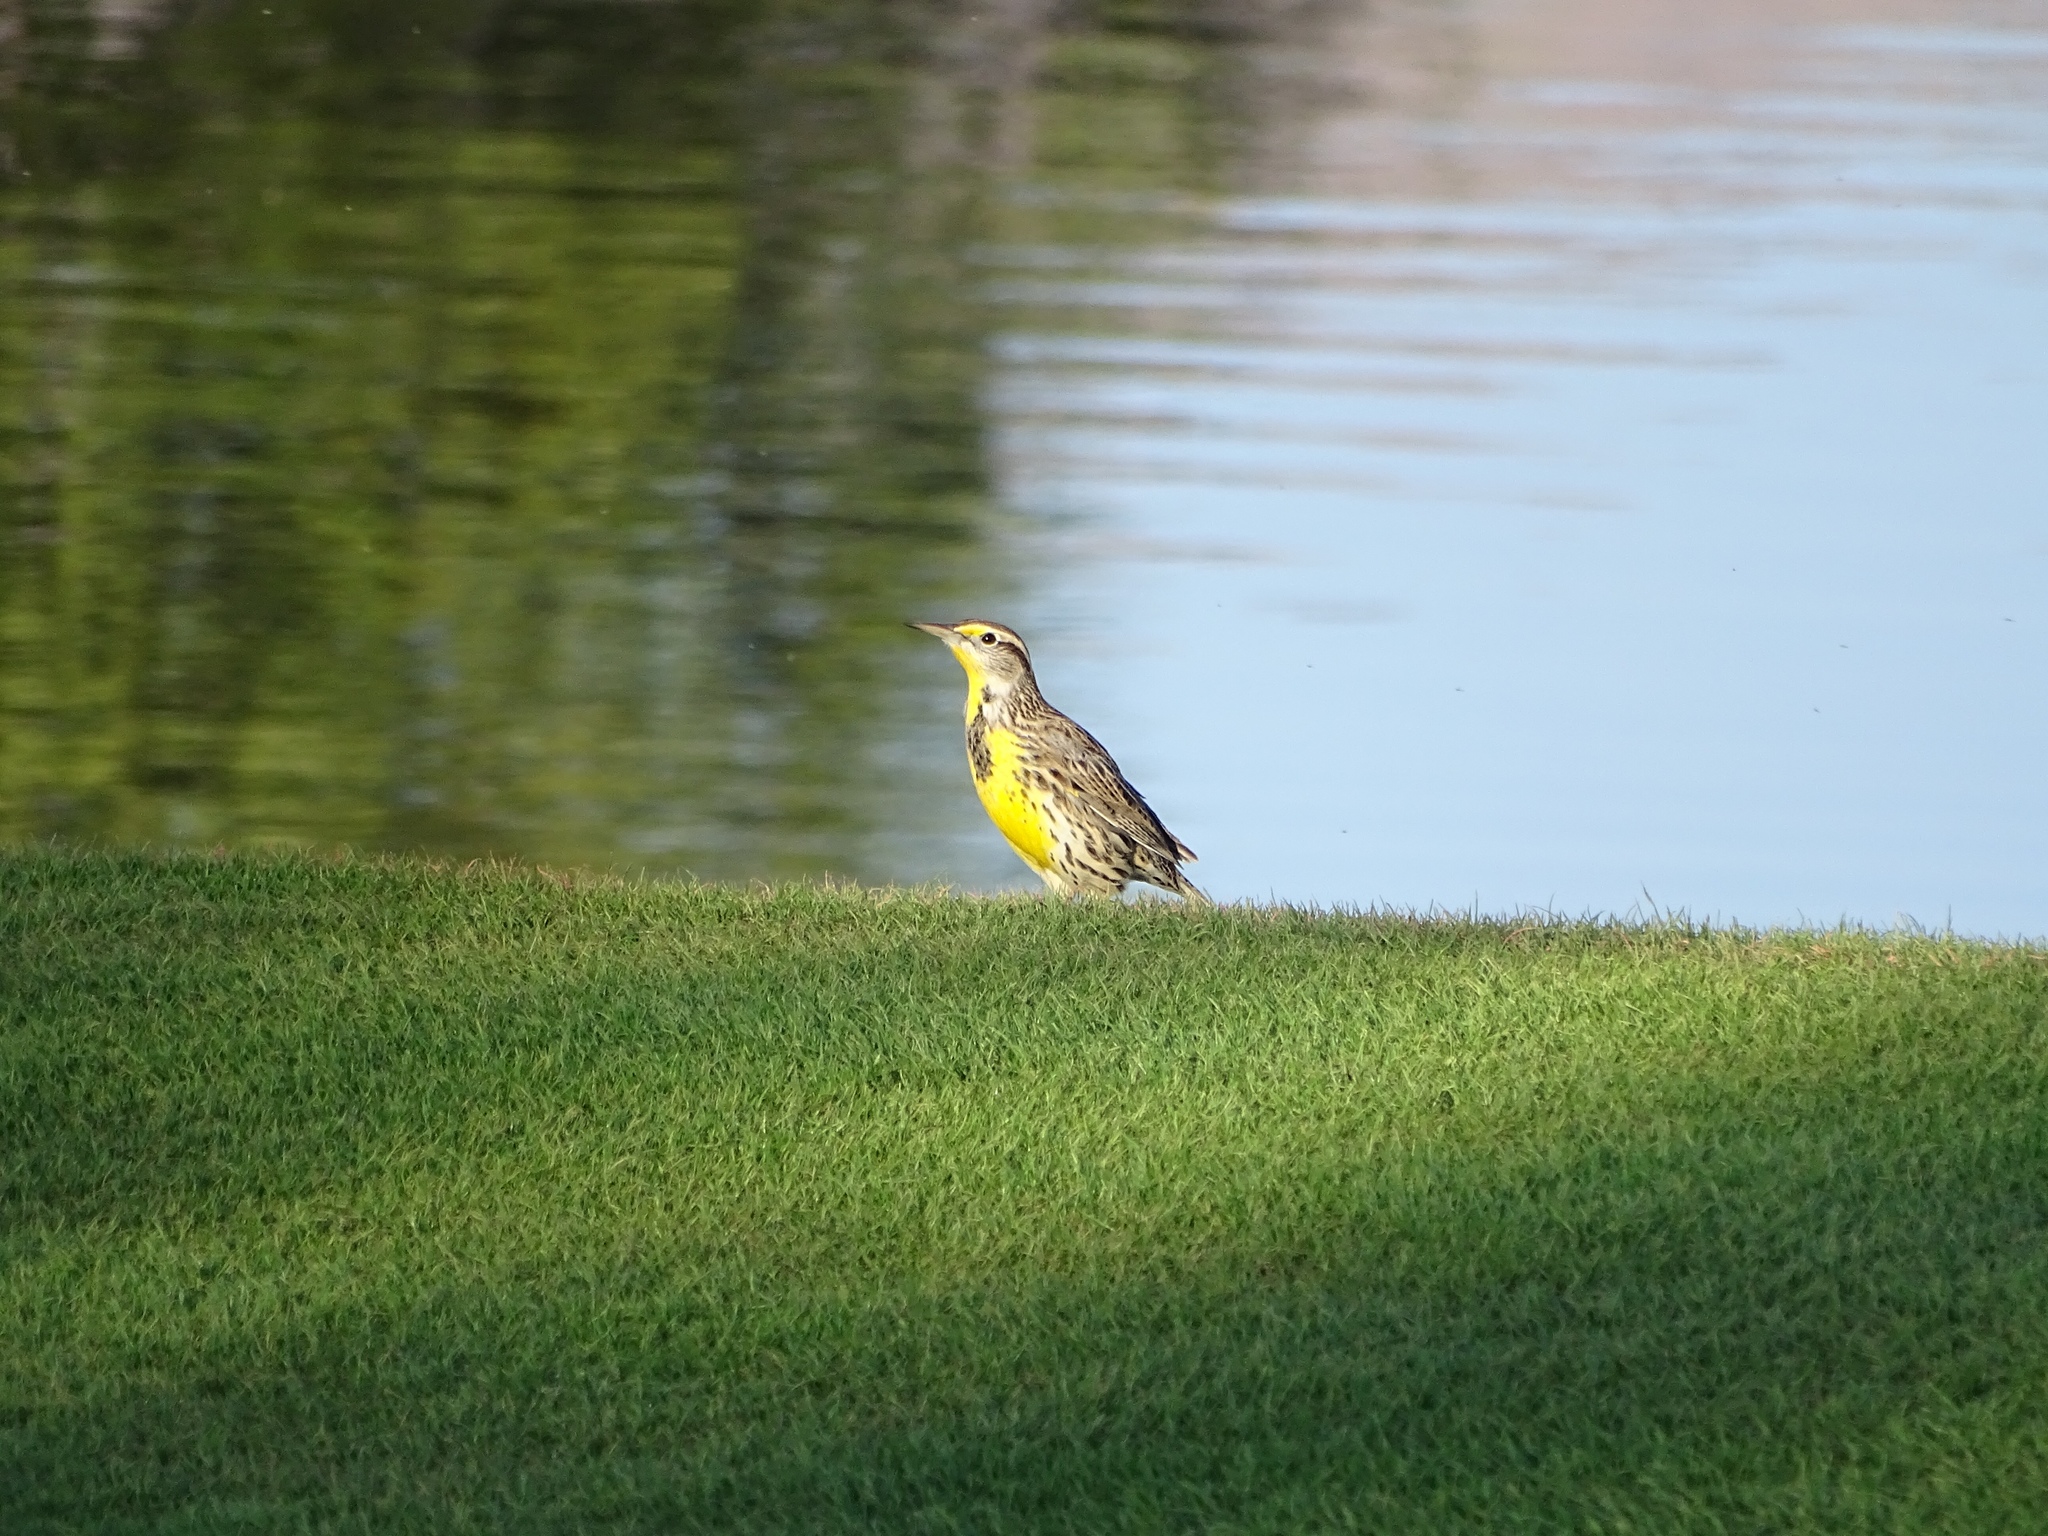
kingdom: Animalia
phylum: Chordata
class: Aves
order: Passeriformes
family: Icteridae
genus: Sturnella
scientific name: Sturnella neglecta
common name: Western meadowlark
